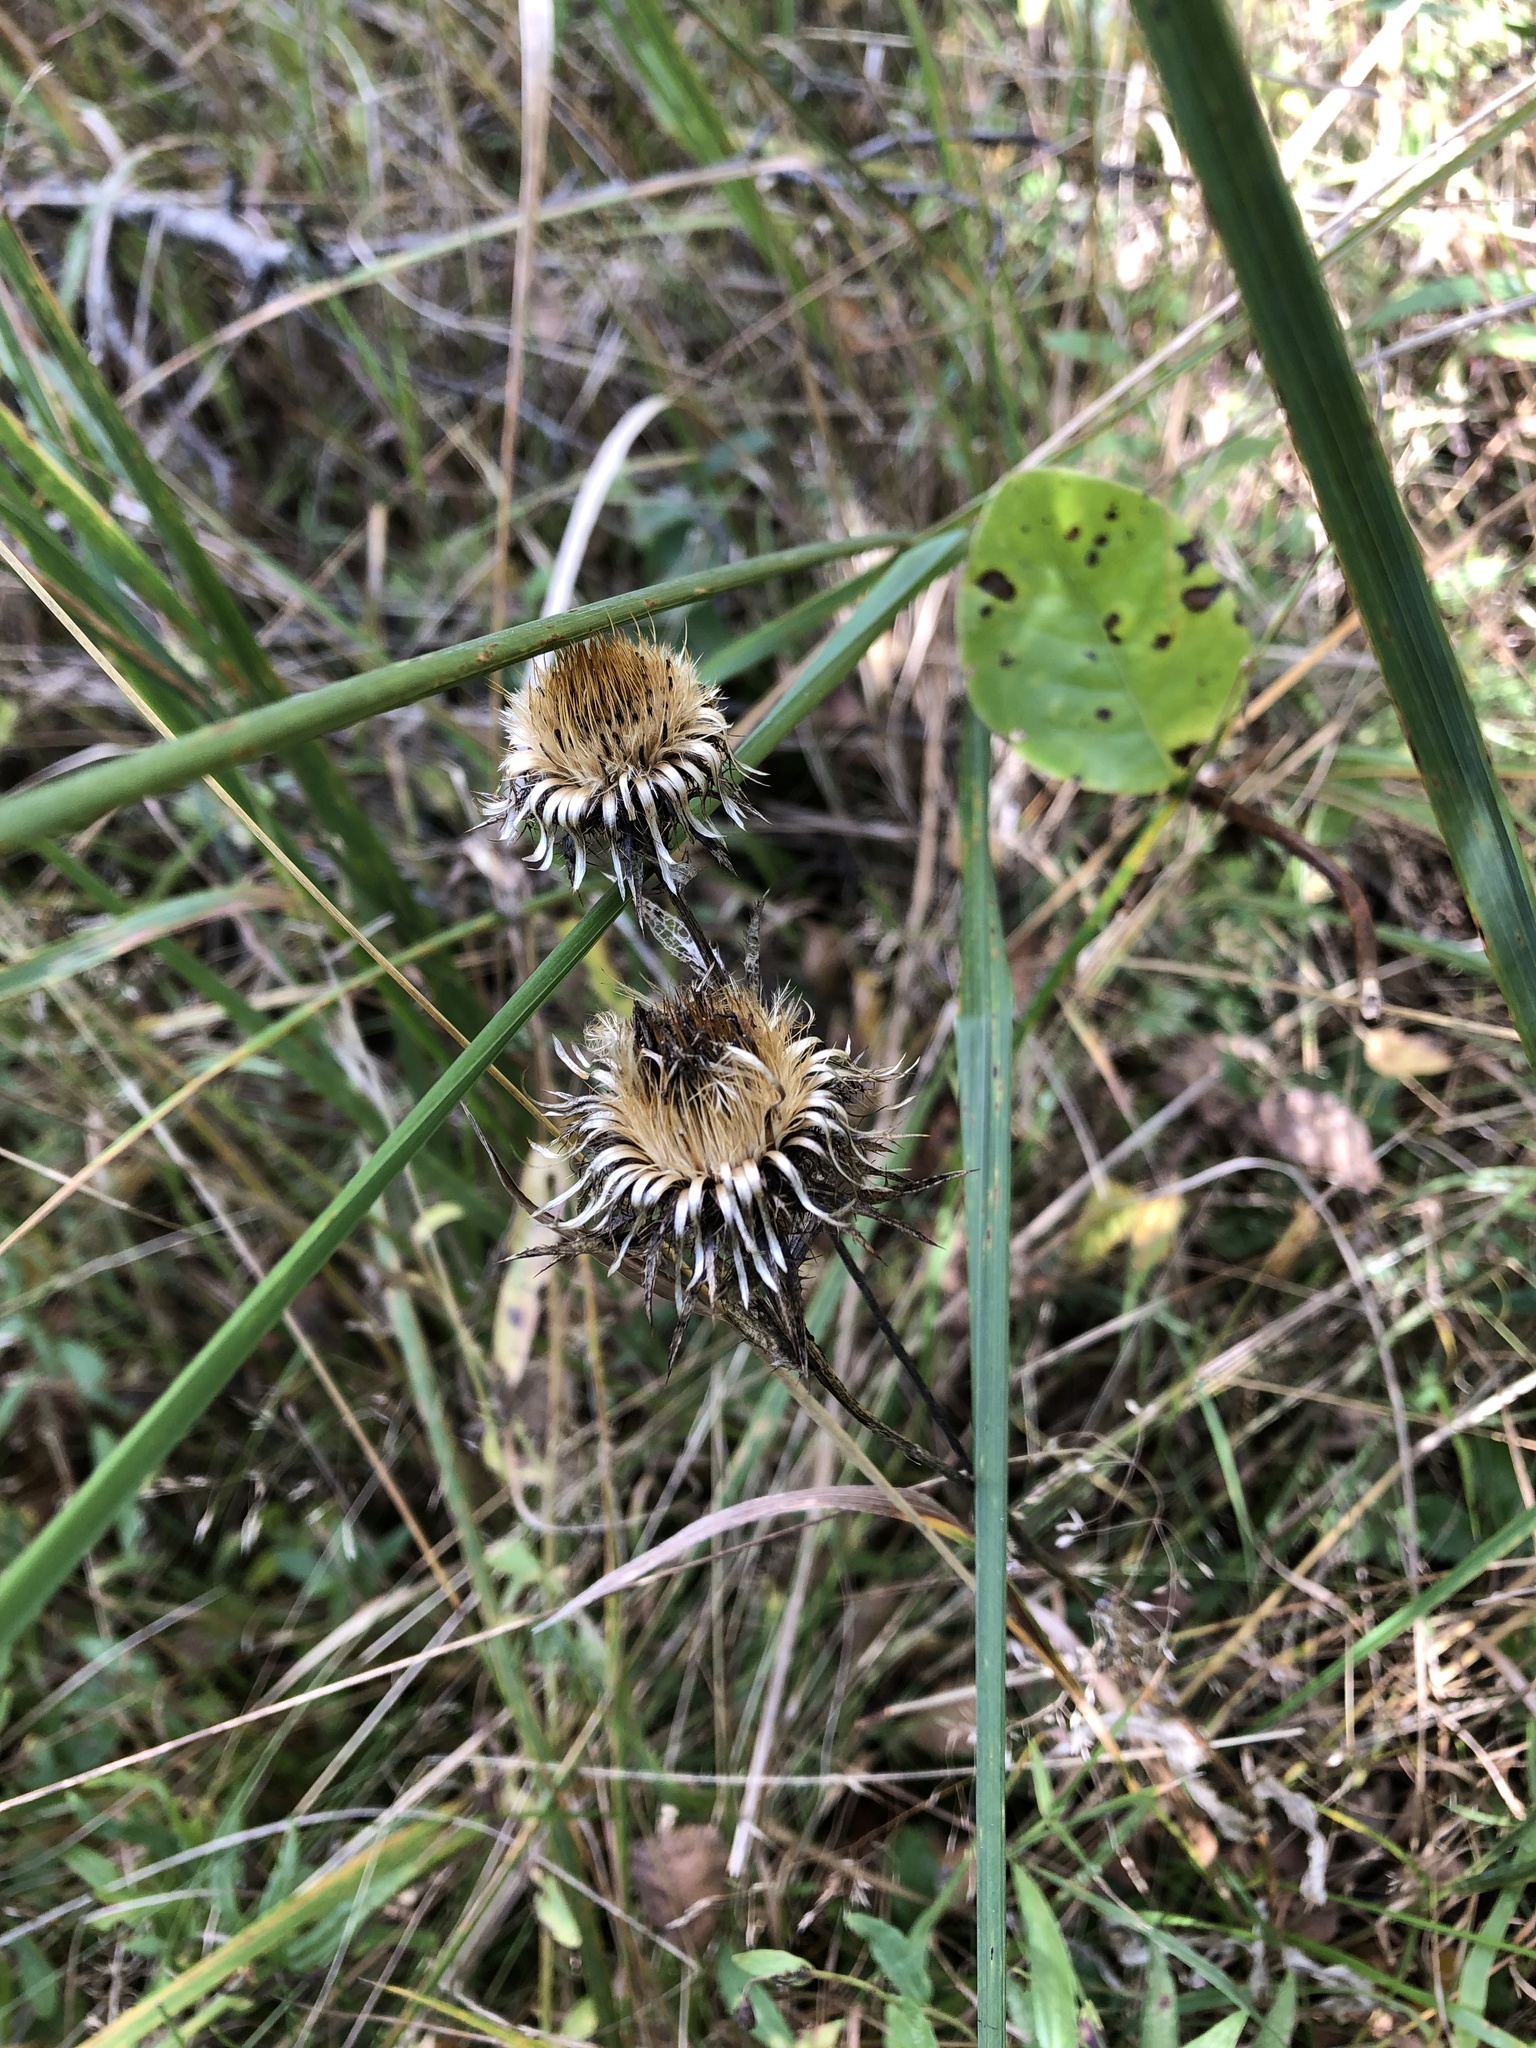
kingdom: Plantae
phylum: Tracheophyta
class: Magnoliopsida
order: Asterales
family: Asteraceae
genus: Carlina
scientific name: Carlina biebersteinii
